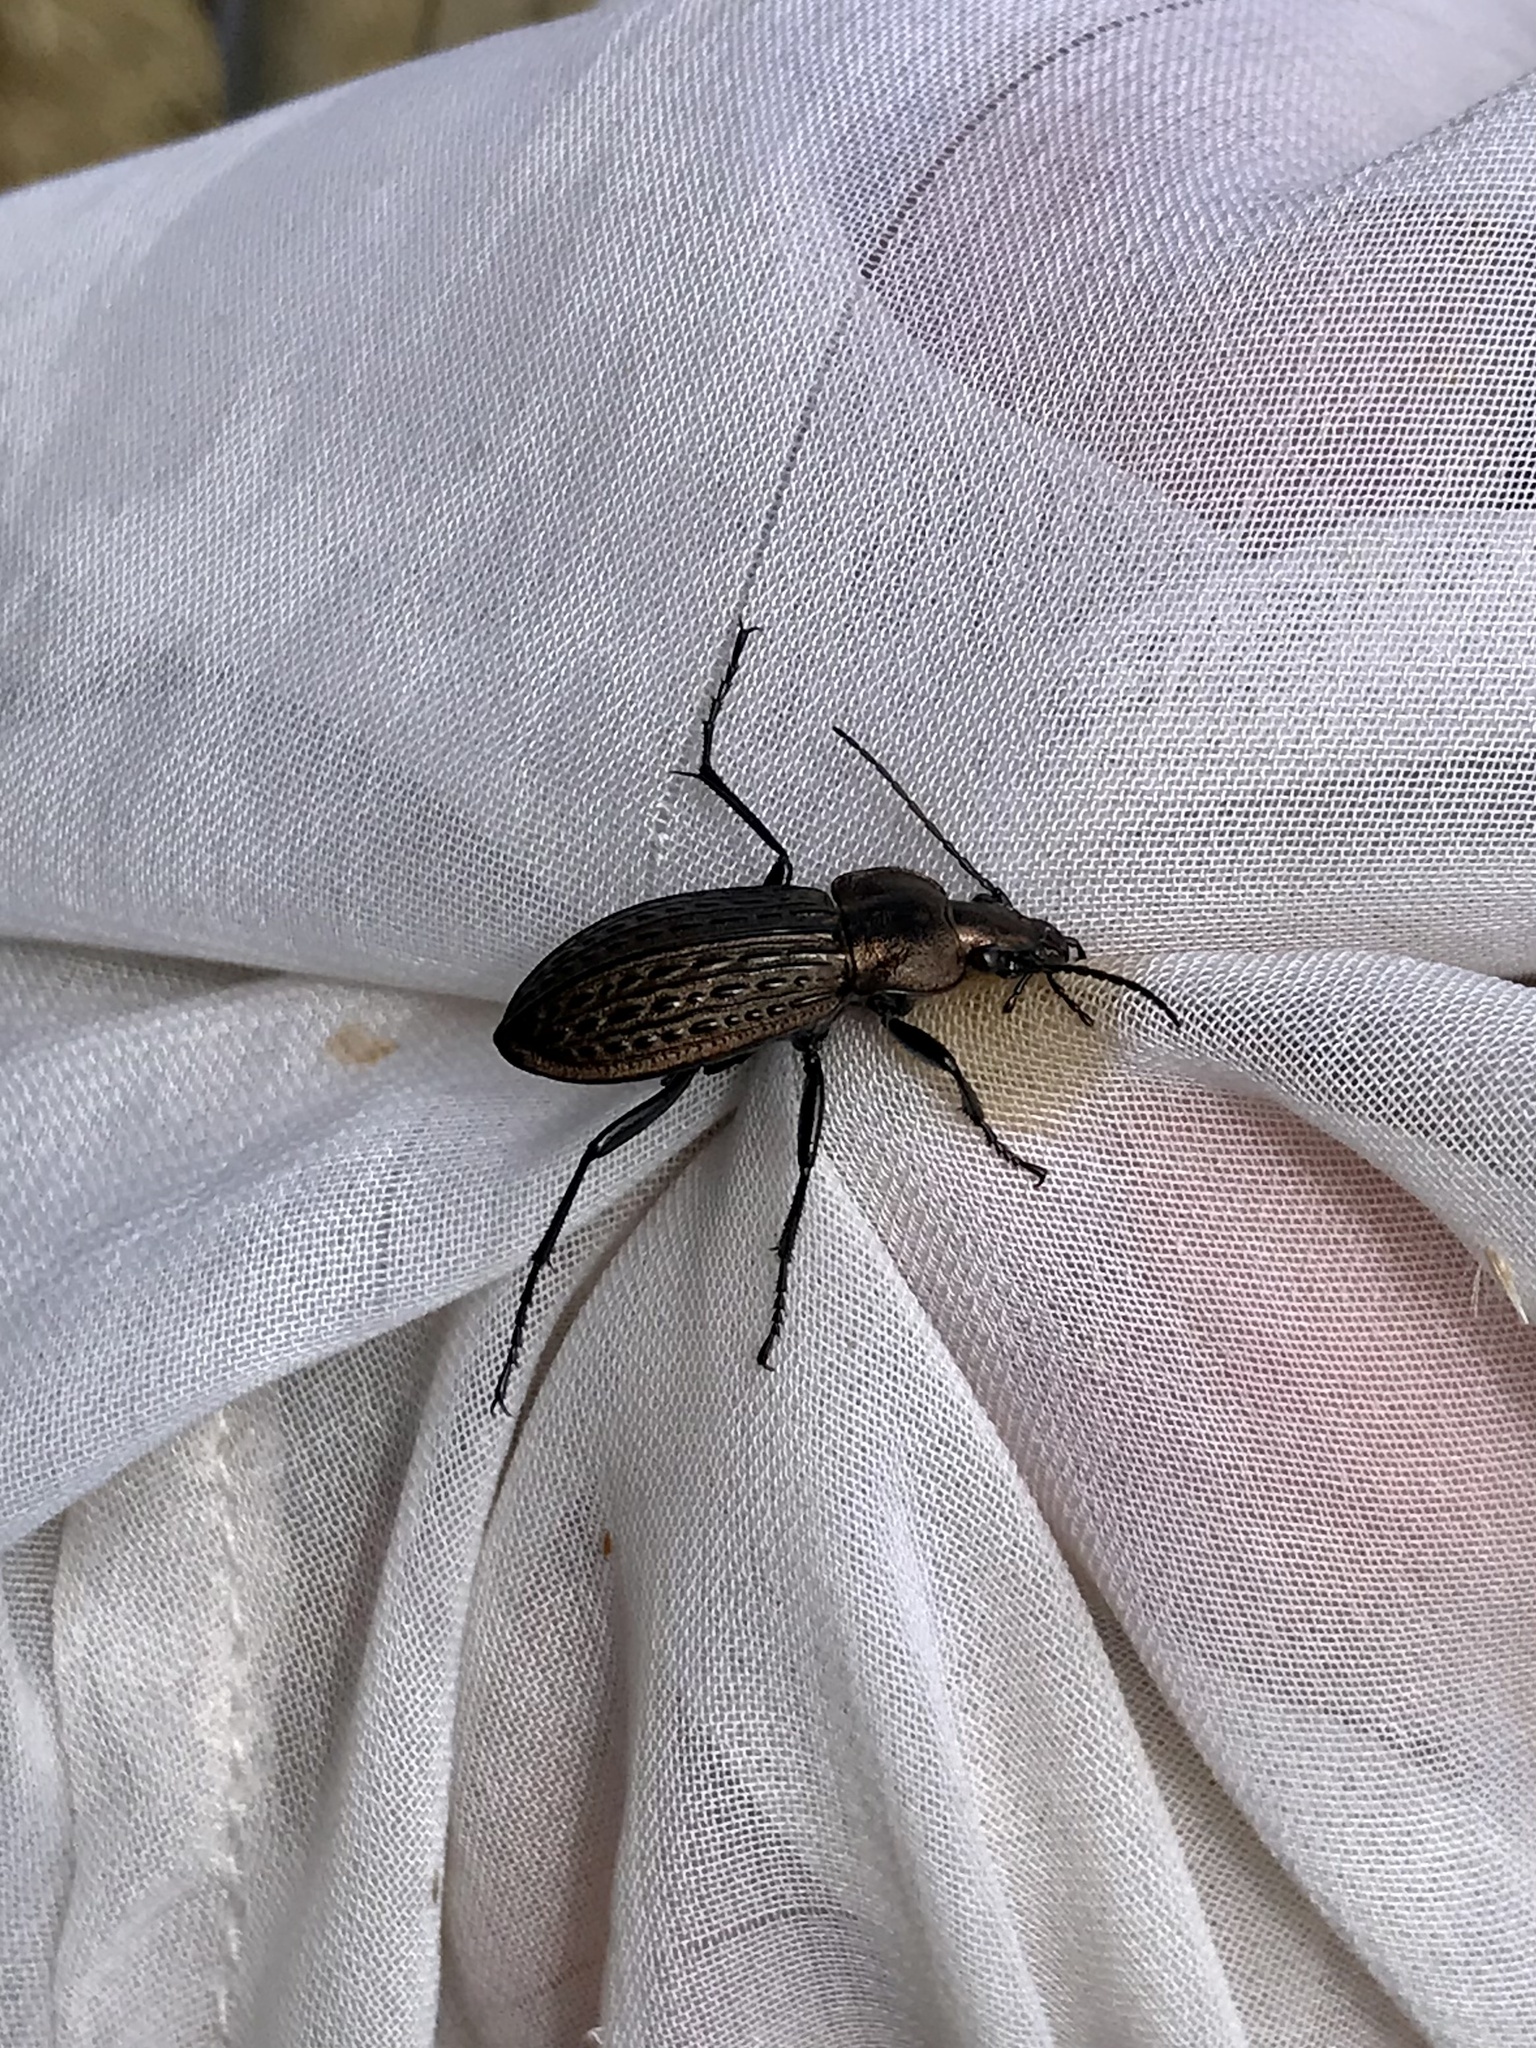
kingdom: Animalia
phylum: Arthropoda
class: Insecta
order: Coleoptera
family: Carabidae
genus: Carabus
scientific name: Carabus maeander
